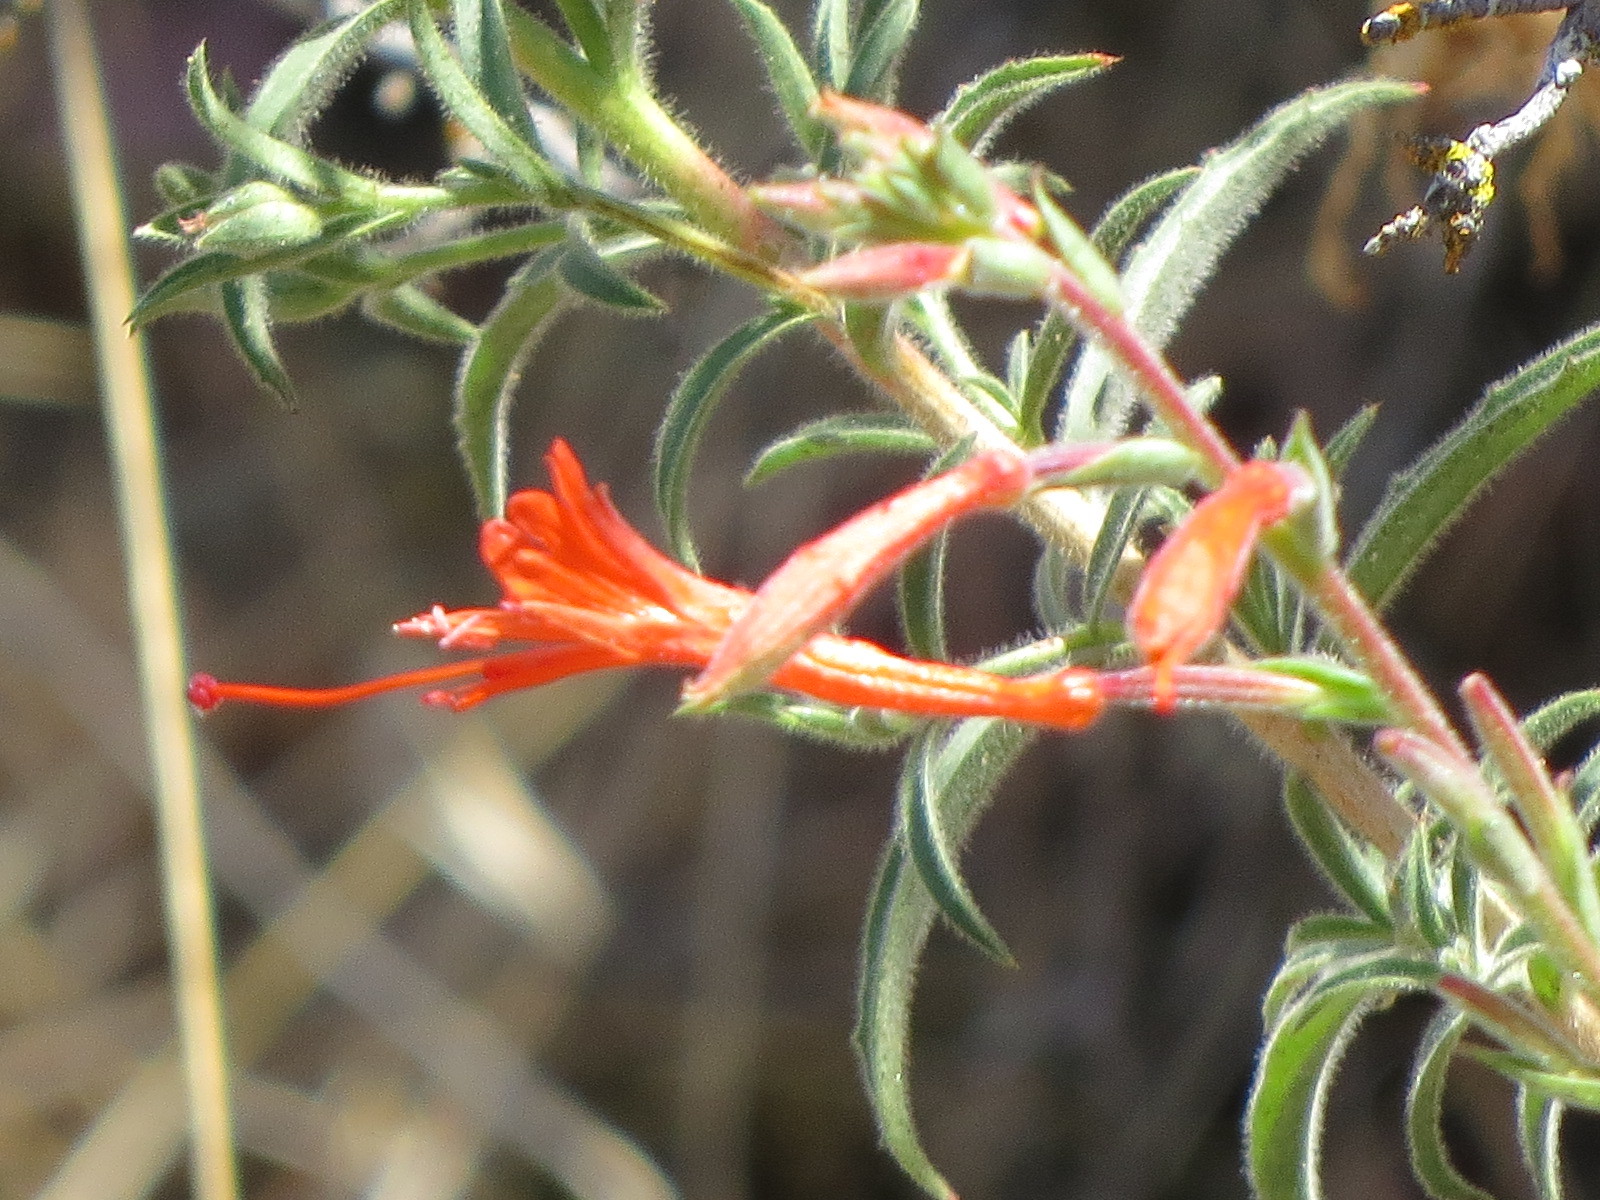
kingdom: Plantae
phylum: Tracheophyta
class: Magnoliopsida
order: Myrtales
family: Onagraceae
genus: Epilobium
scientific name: Epilobium canum
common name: California-fuchsia
